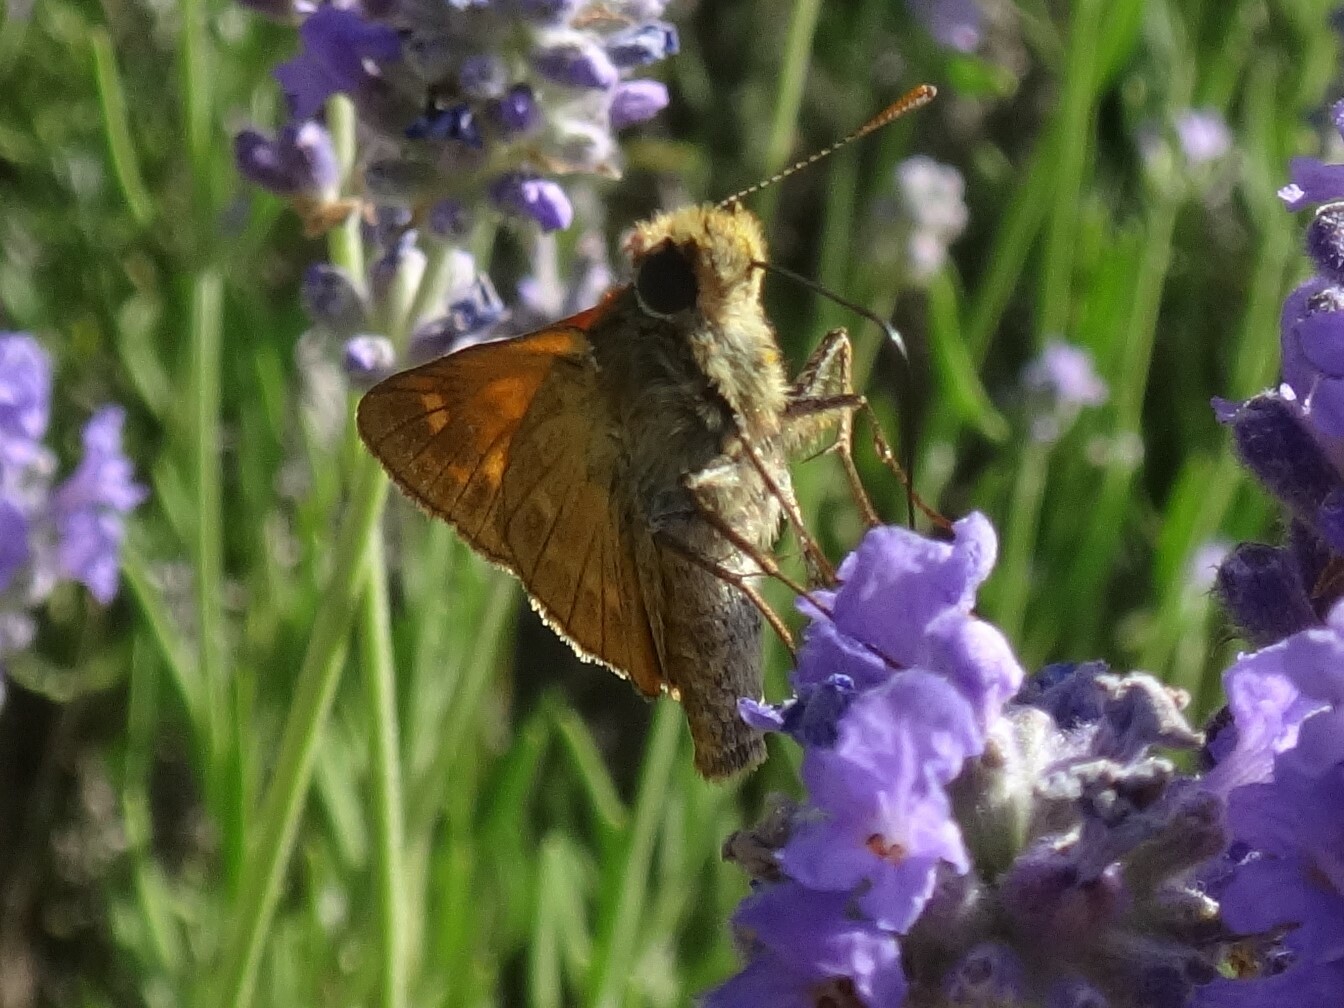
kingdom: Animalia
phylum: Arthropoda
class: Insecta
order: Lepidoptera
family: Hesperiidae
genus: Ochlodes
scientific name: Ochlodes venata
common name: Large skipper
